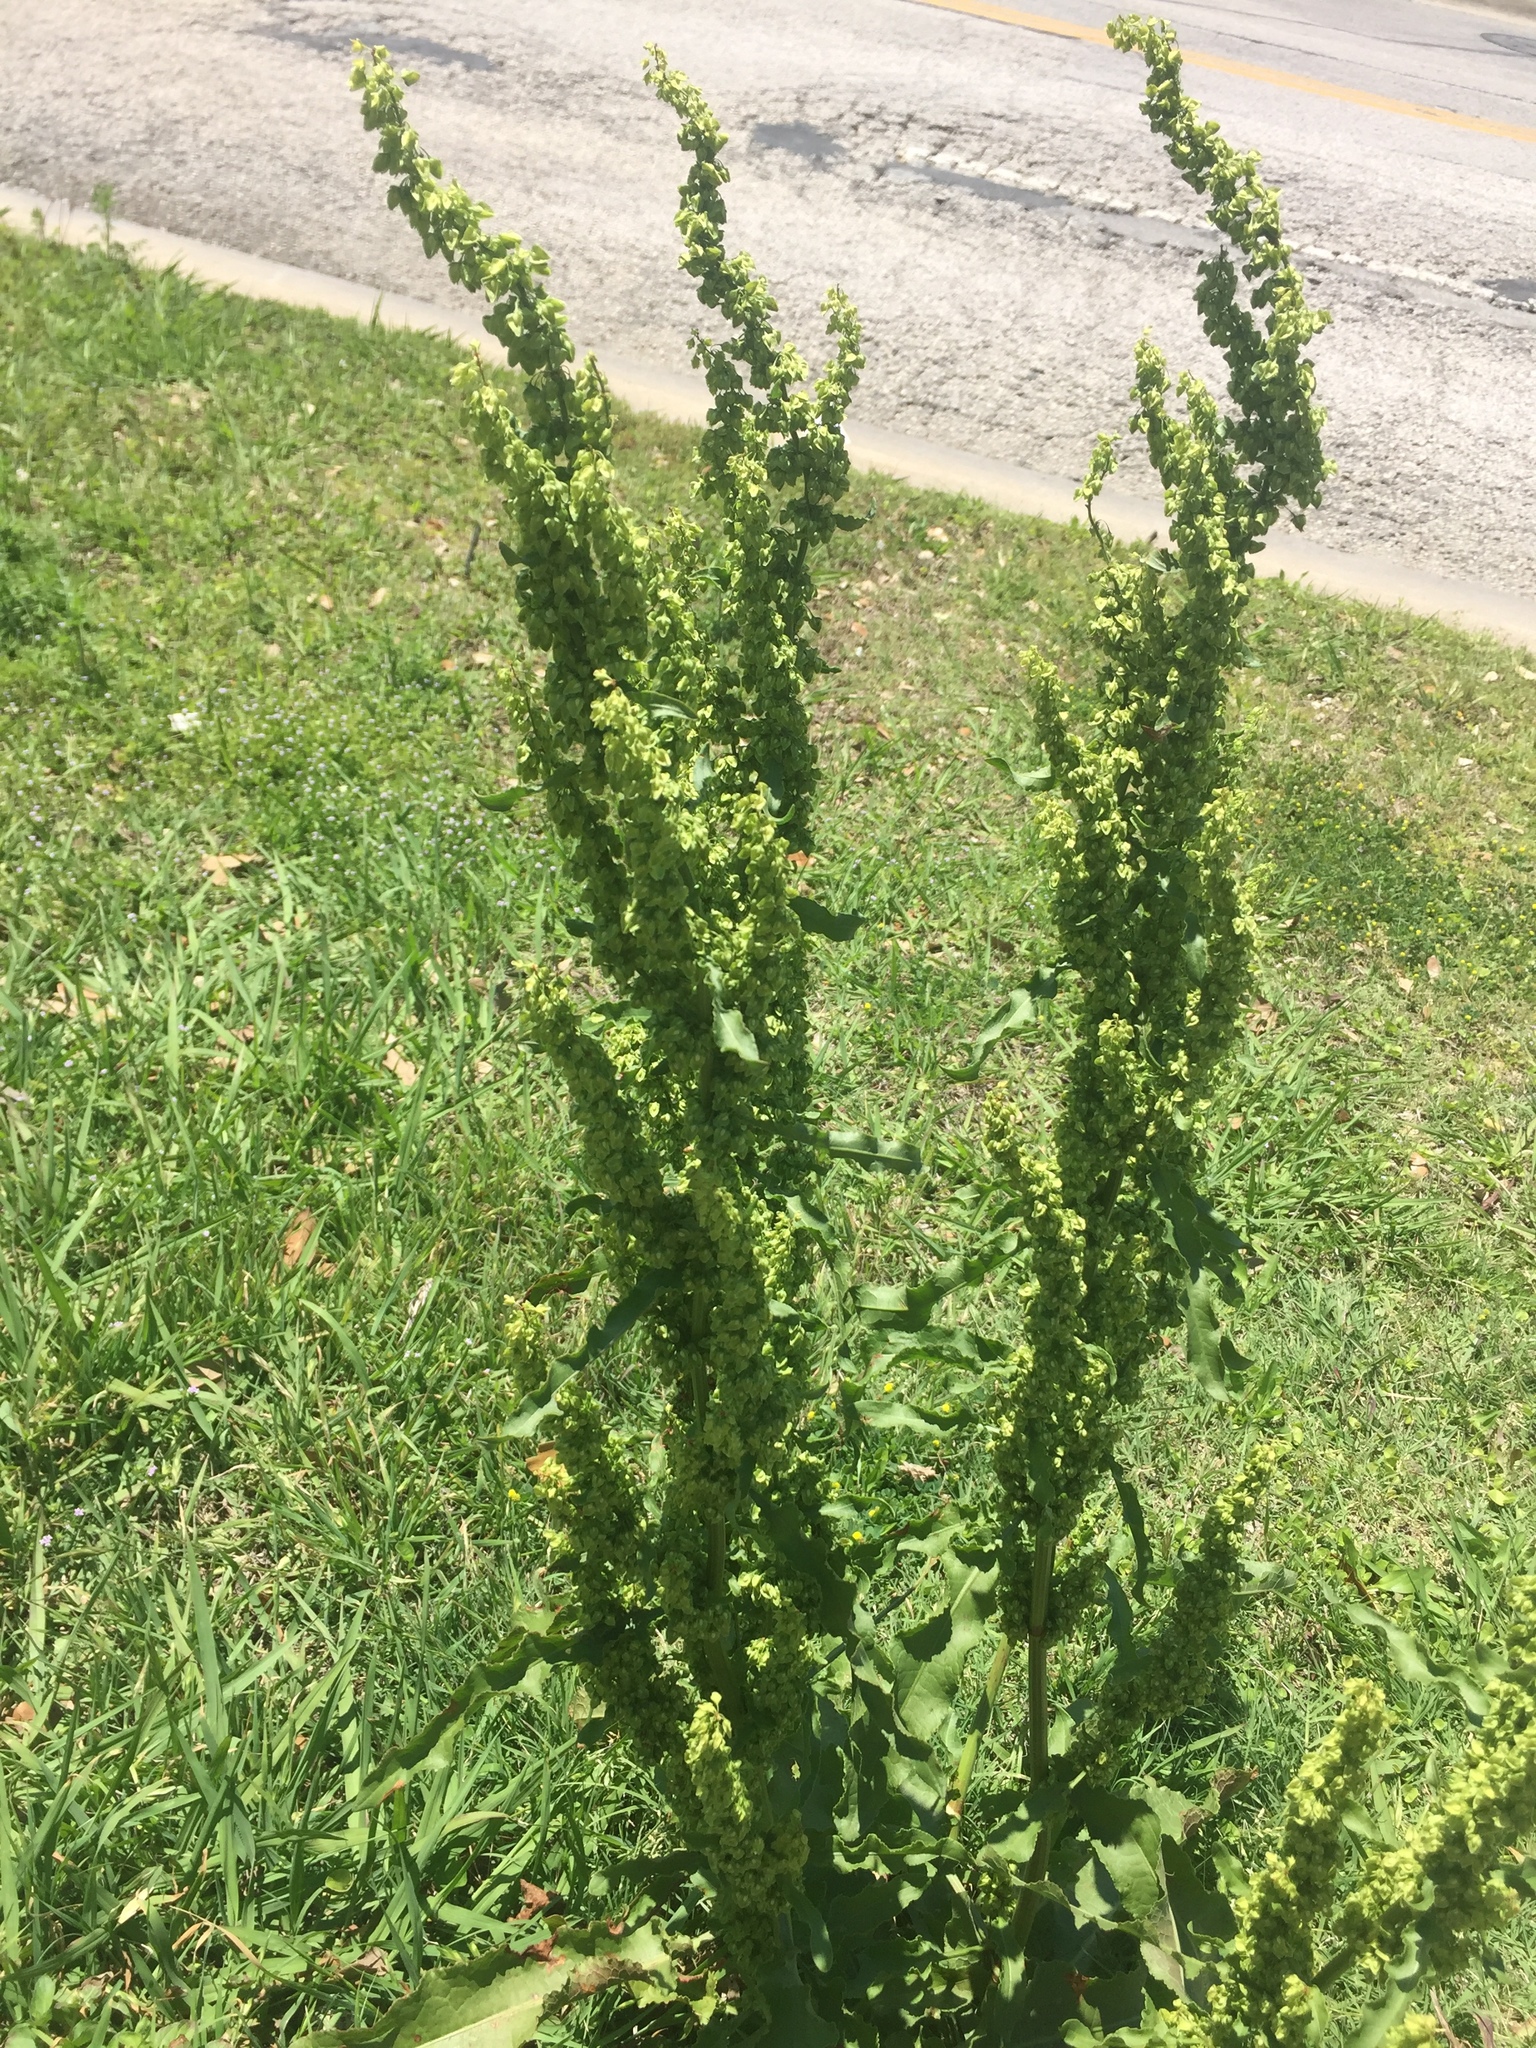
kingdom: Plantae
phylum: Tracheophyta
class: Magnoliopsida
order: Caryophyllales
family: Polygonaceae
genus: Rumex
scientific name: Rumex crispus
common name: Curled dock
